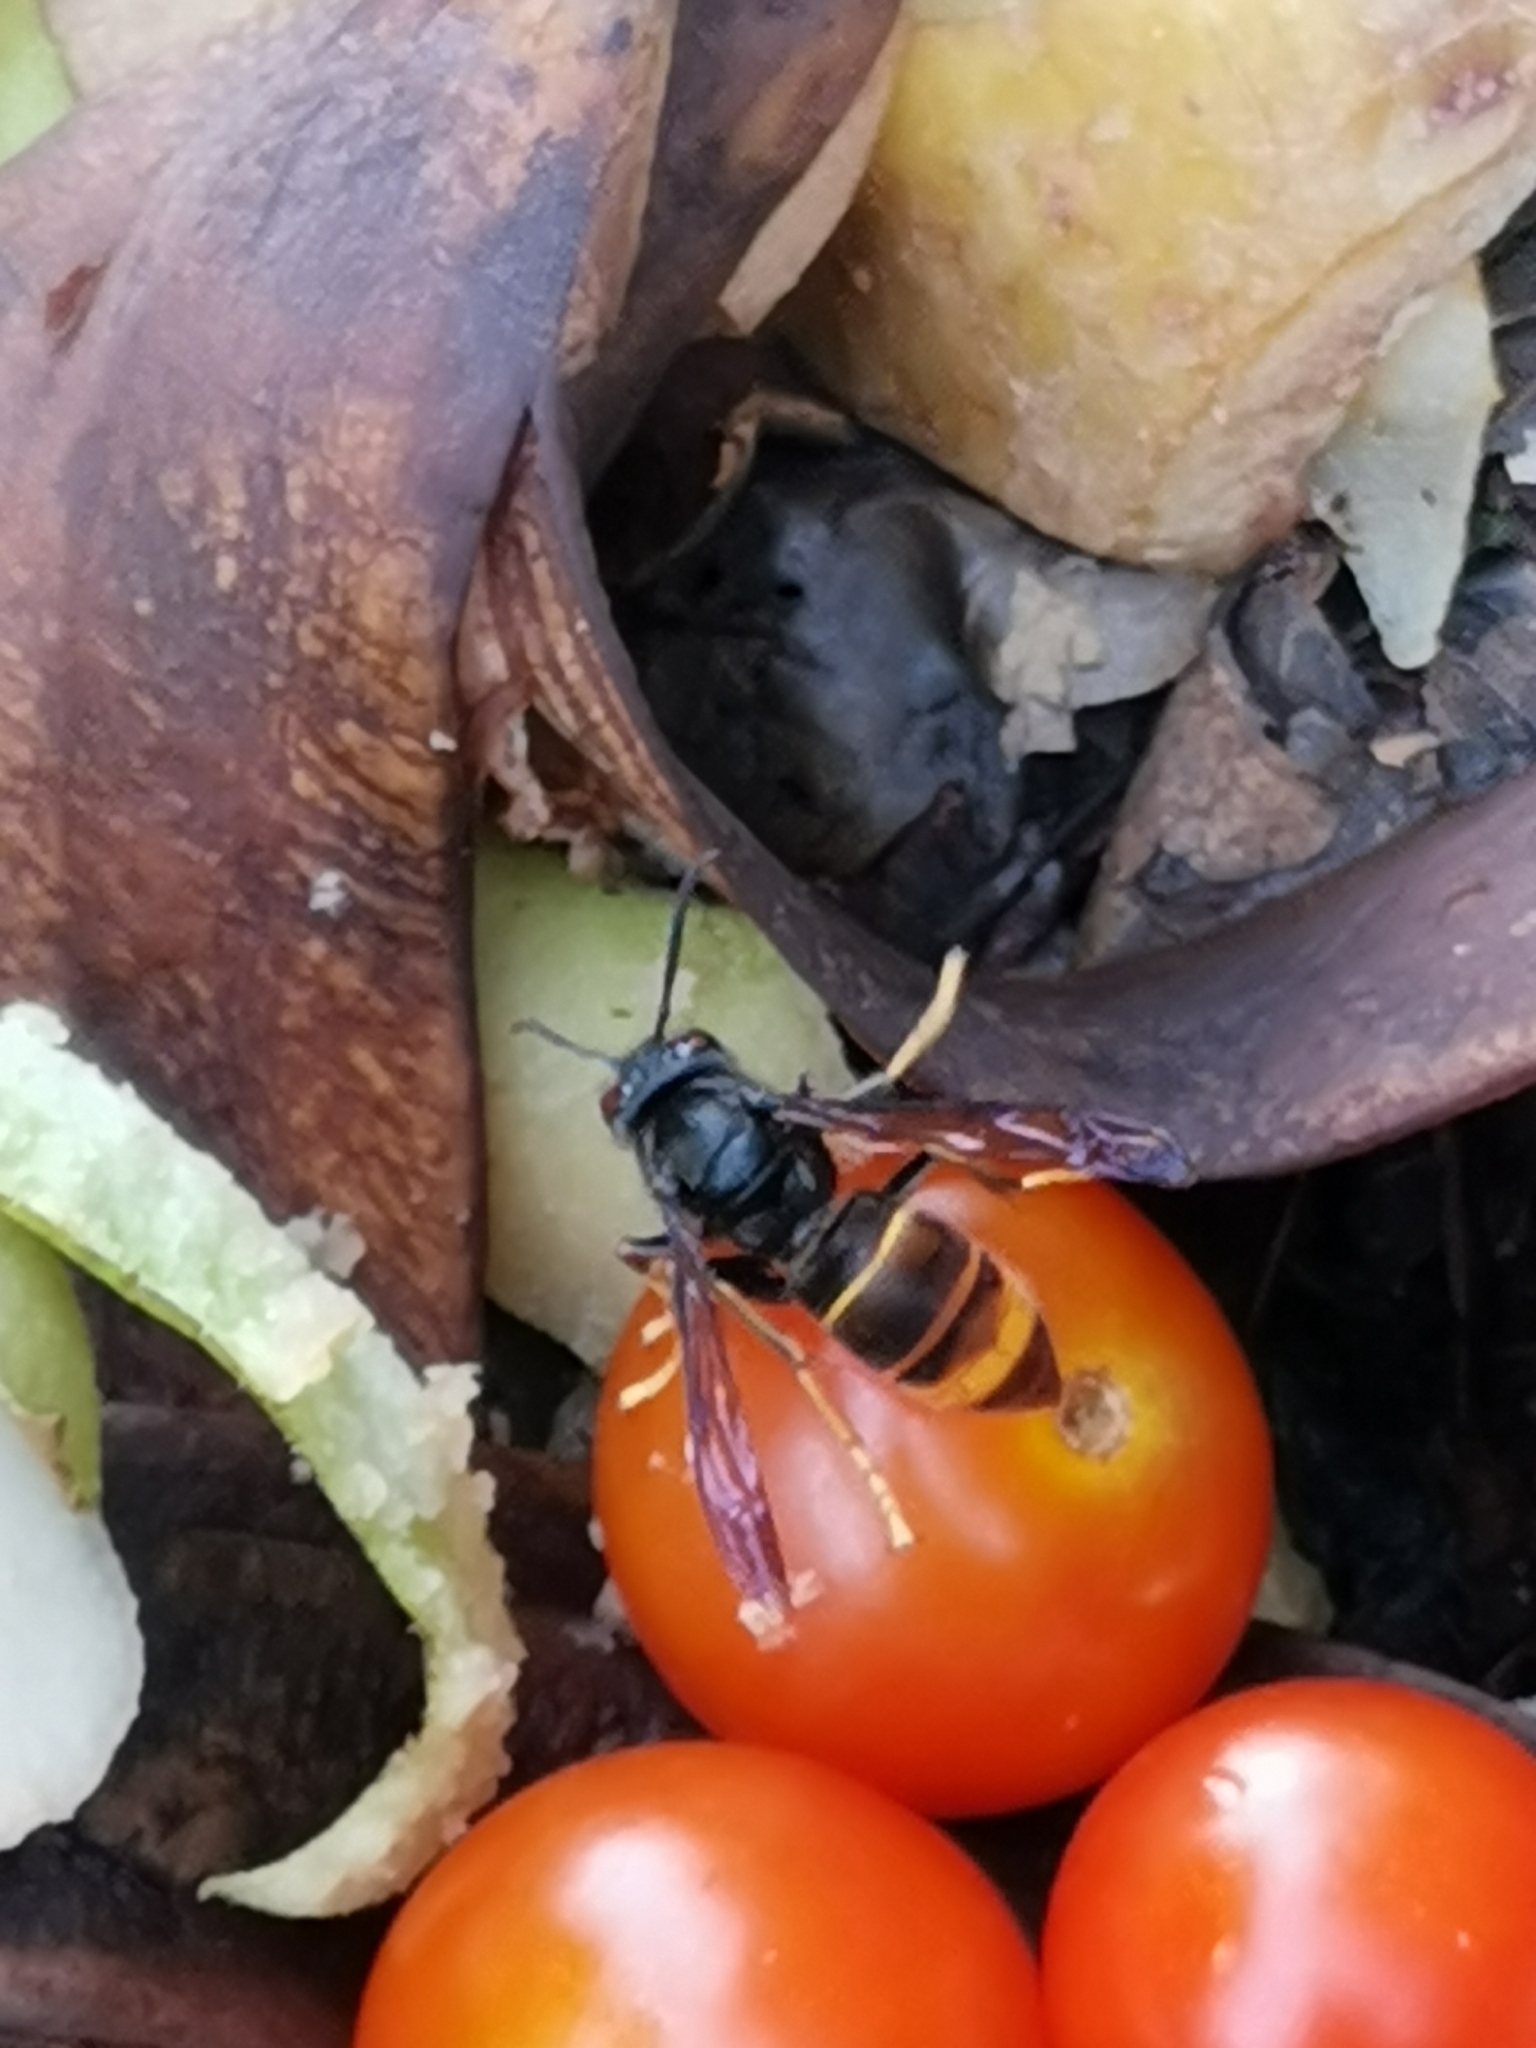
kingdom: Animalia
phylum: Arthropoda
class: Insecta
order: Hymenoptera
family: Vespidae
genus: Vespa
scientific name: Vespa velutina
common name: Asian hornet
